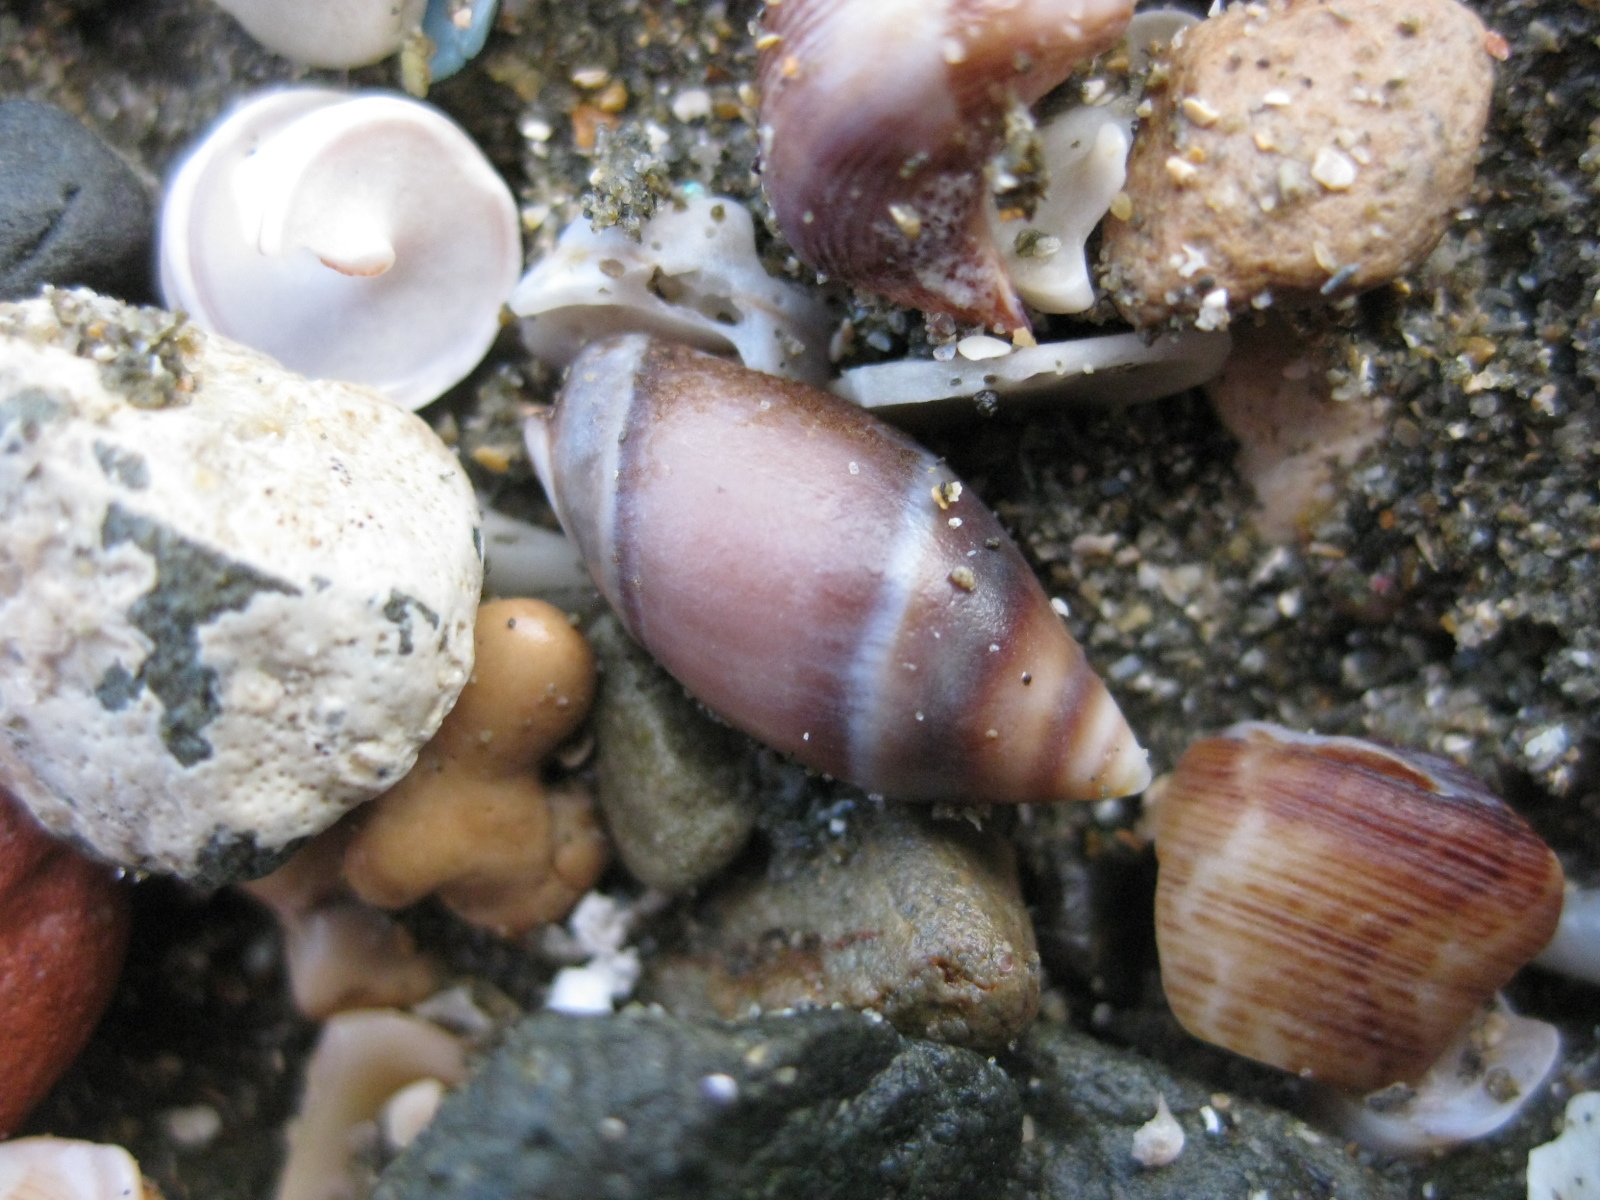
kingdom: Animalia
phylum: Mollusca
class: Gastropoda
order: Neogastropoda
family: Ancillariidae
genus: Amalda
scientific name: Amalda australis
